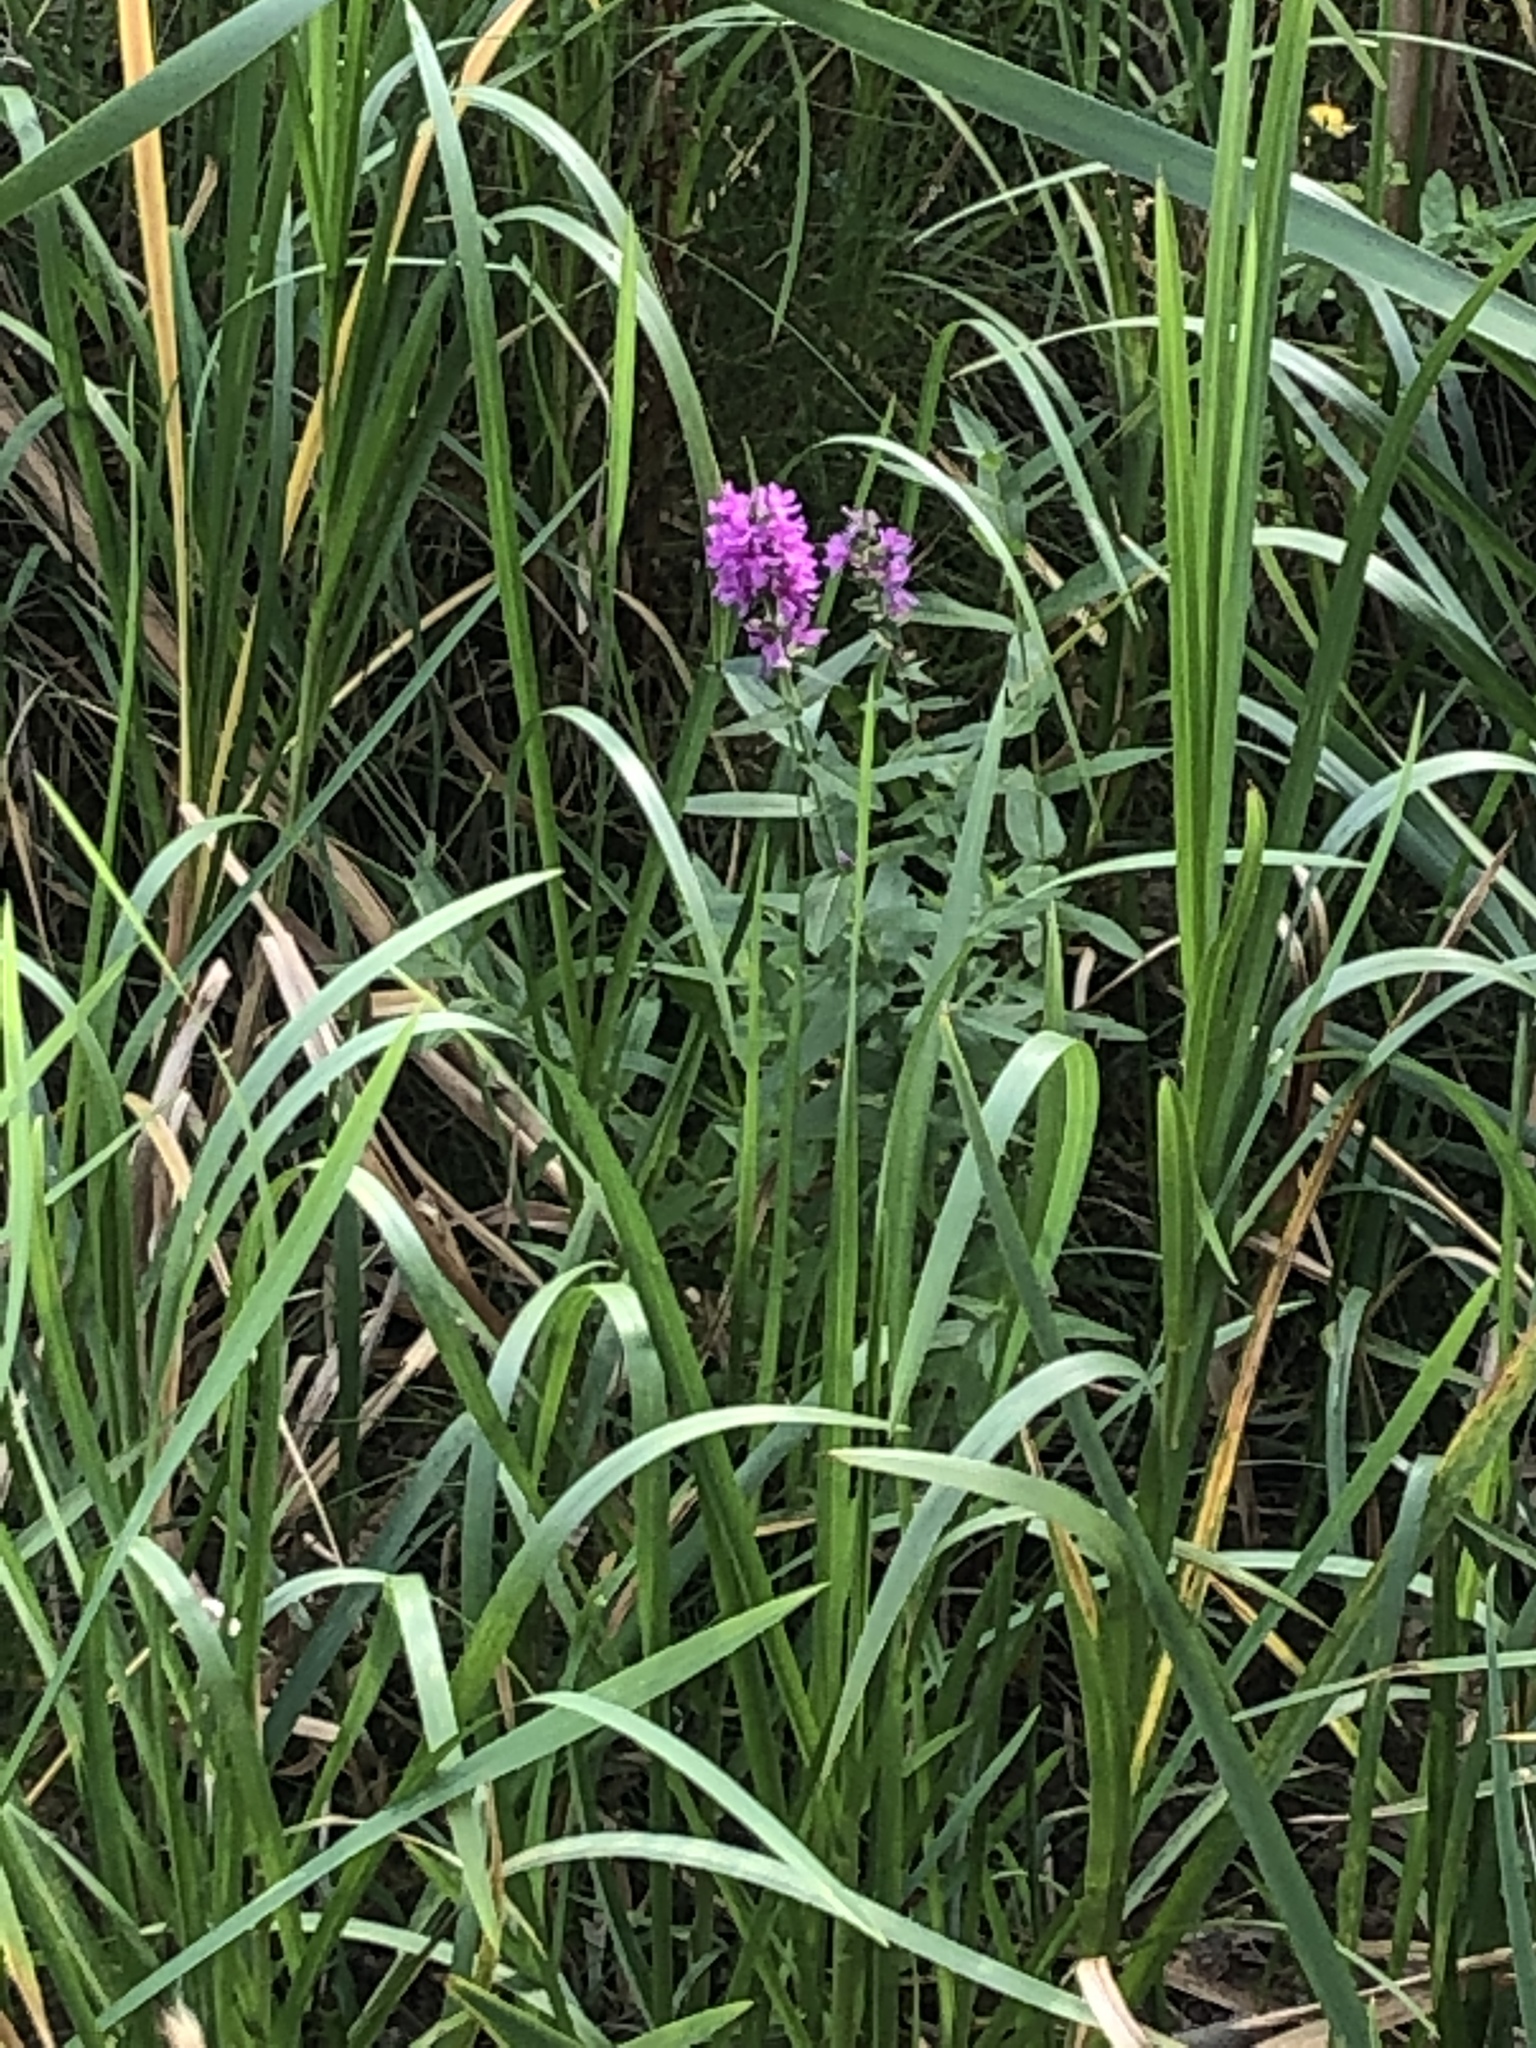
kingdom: Plantae
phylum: Tracheophyta
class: Magnoliopsida
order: Myrtales
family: Lythraceae
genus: Lythrum
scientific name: Lythrum salicaria
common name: Purple loosestrife
